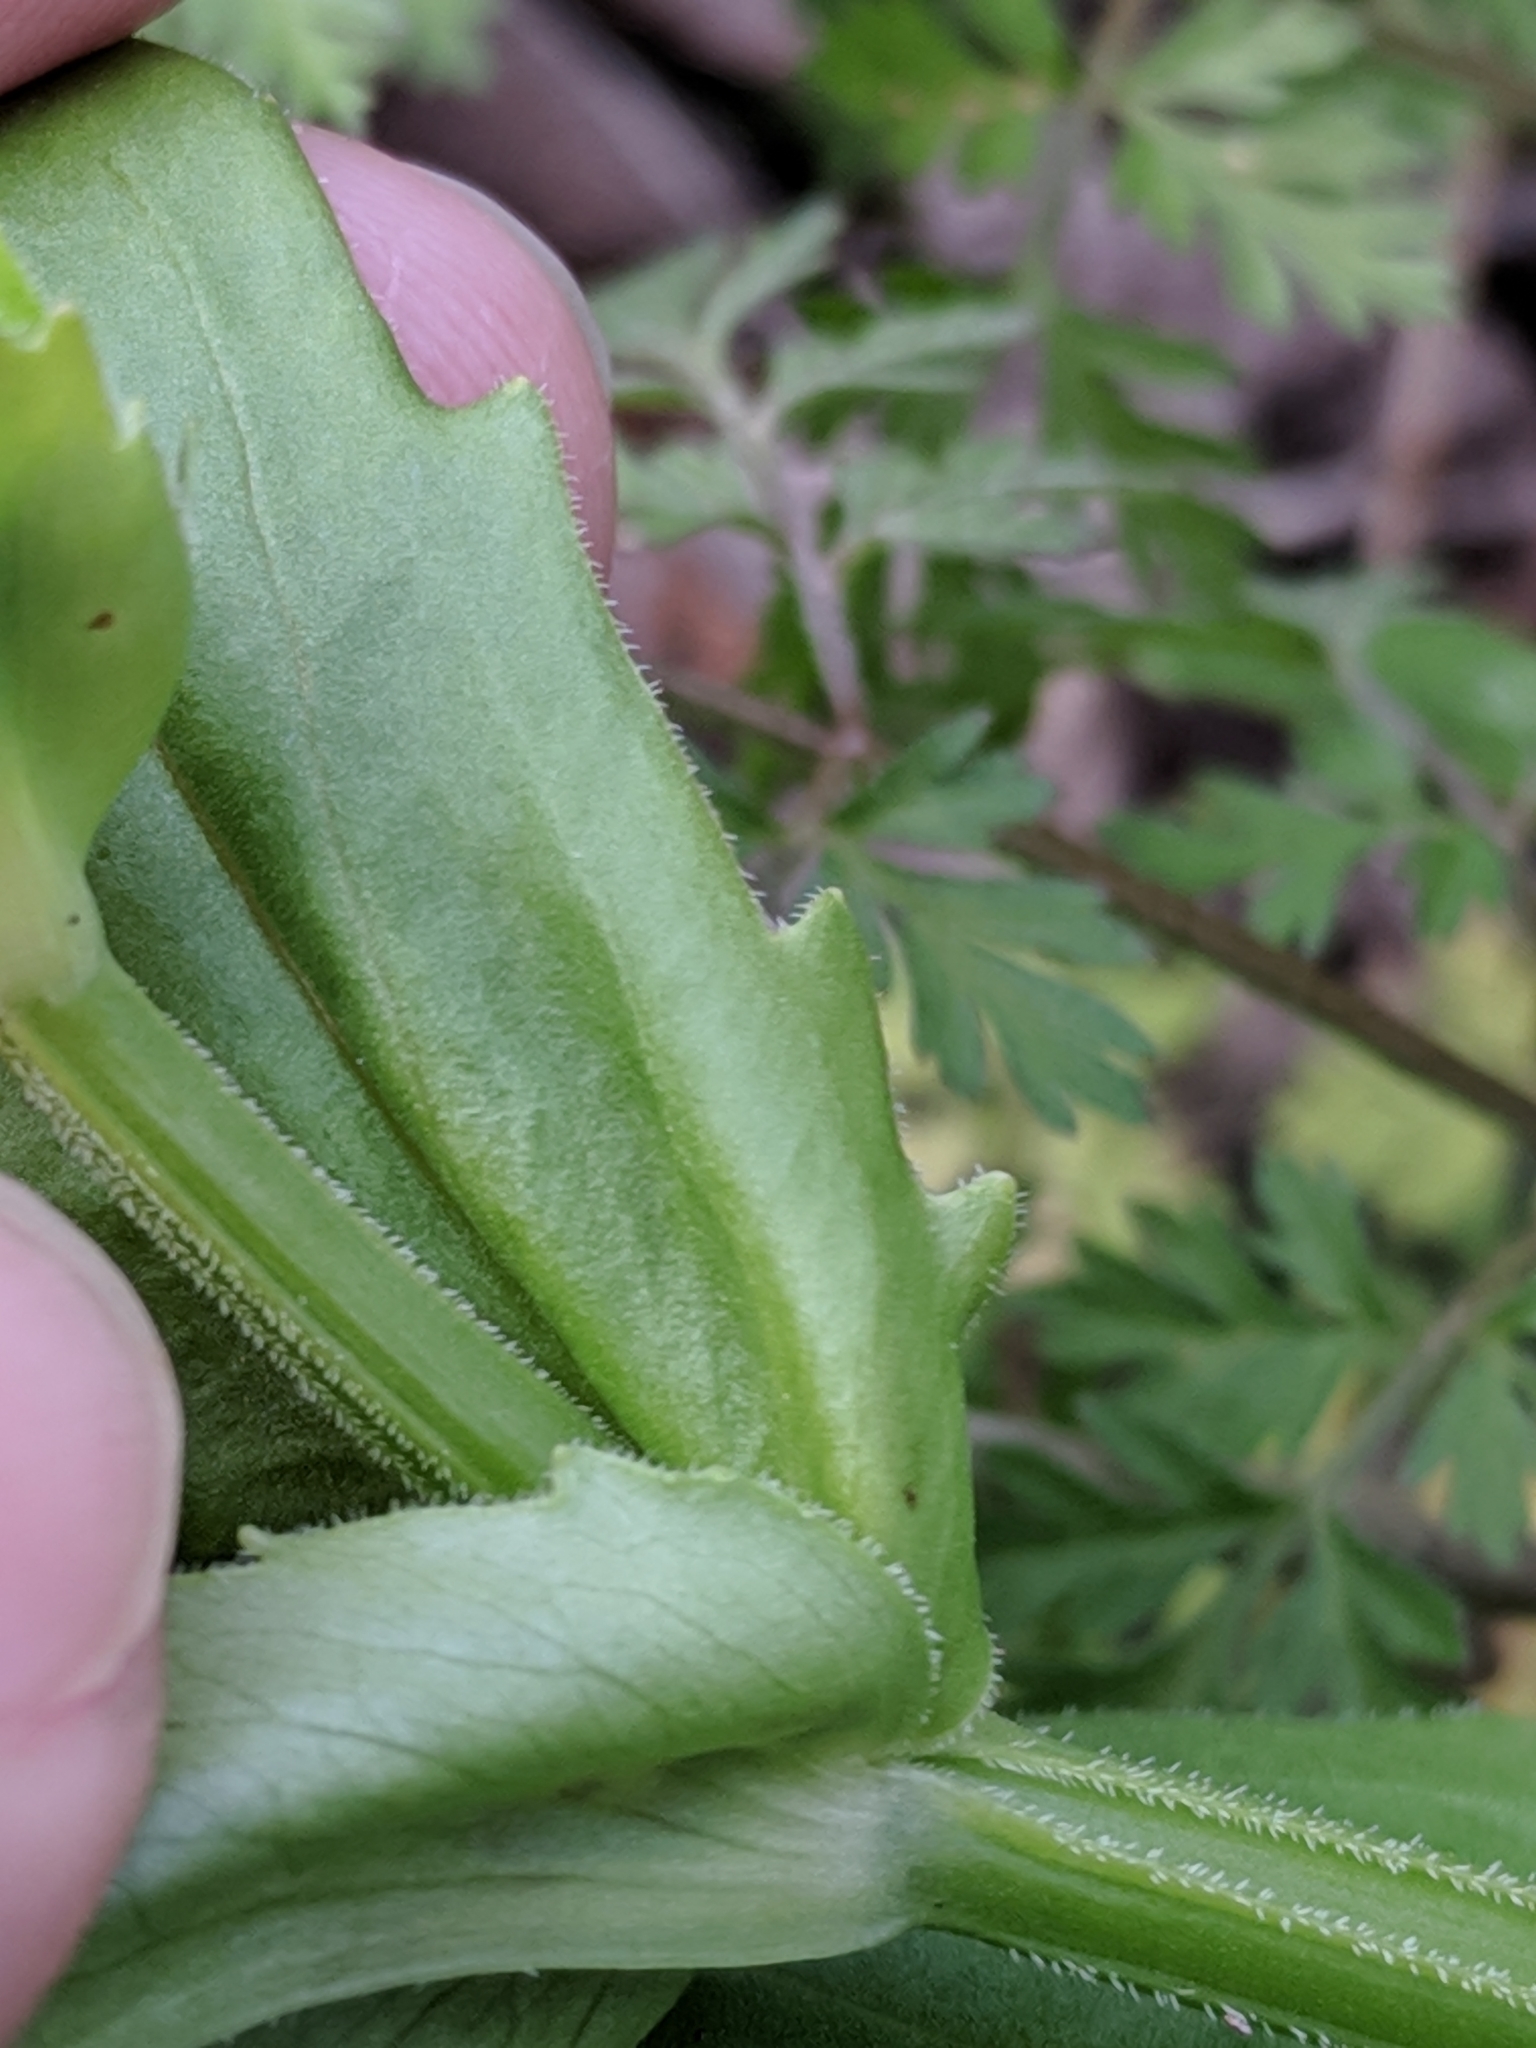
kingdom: Plantae
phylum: Tracheophyta
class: Magnoliopsida
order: Dipsacales
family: Caprifoliaceae
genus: Valerianella
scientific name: Valerianella radiata
